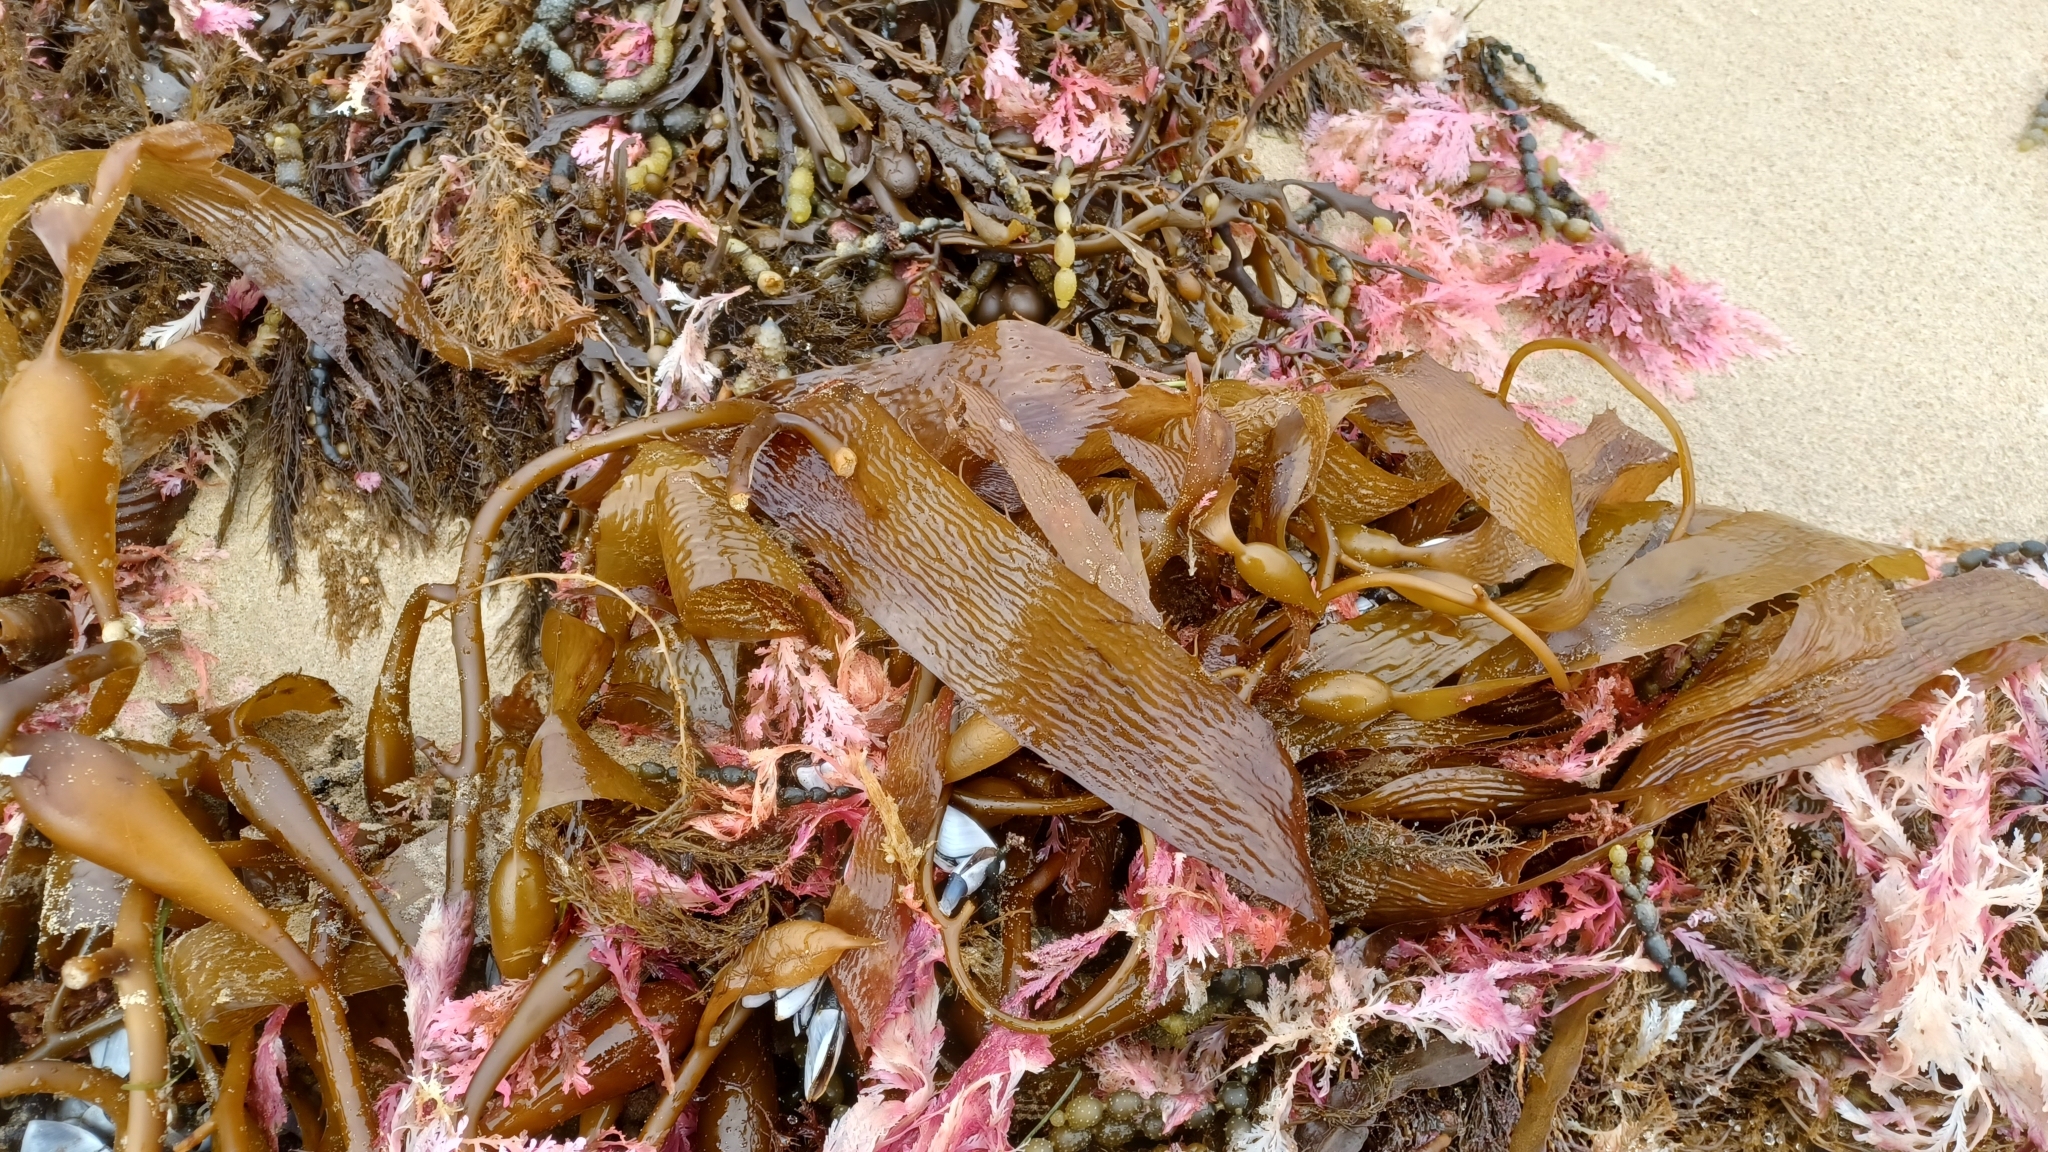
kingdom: Chromista
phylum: Ochrophyta
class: Phaeophyceae
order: Laminariales
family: Laminariaceae
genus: Macrocystis
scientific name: Macrocystis pyrifera
